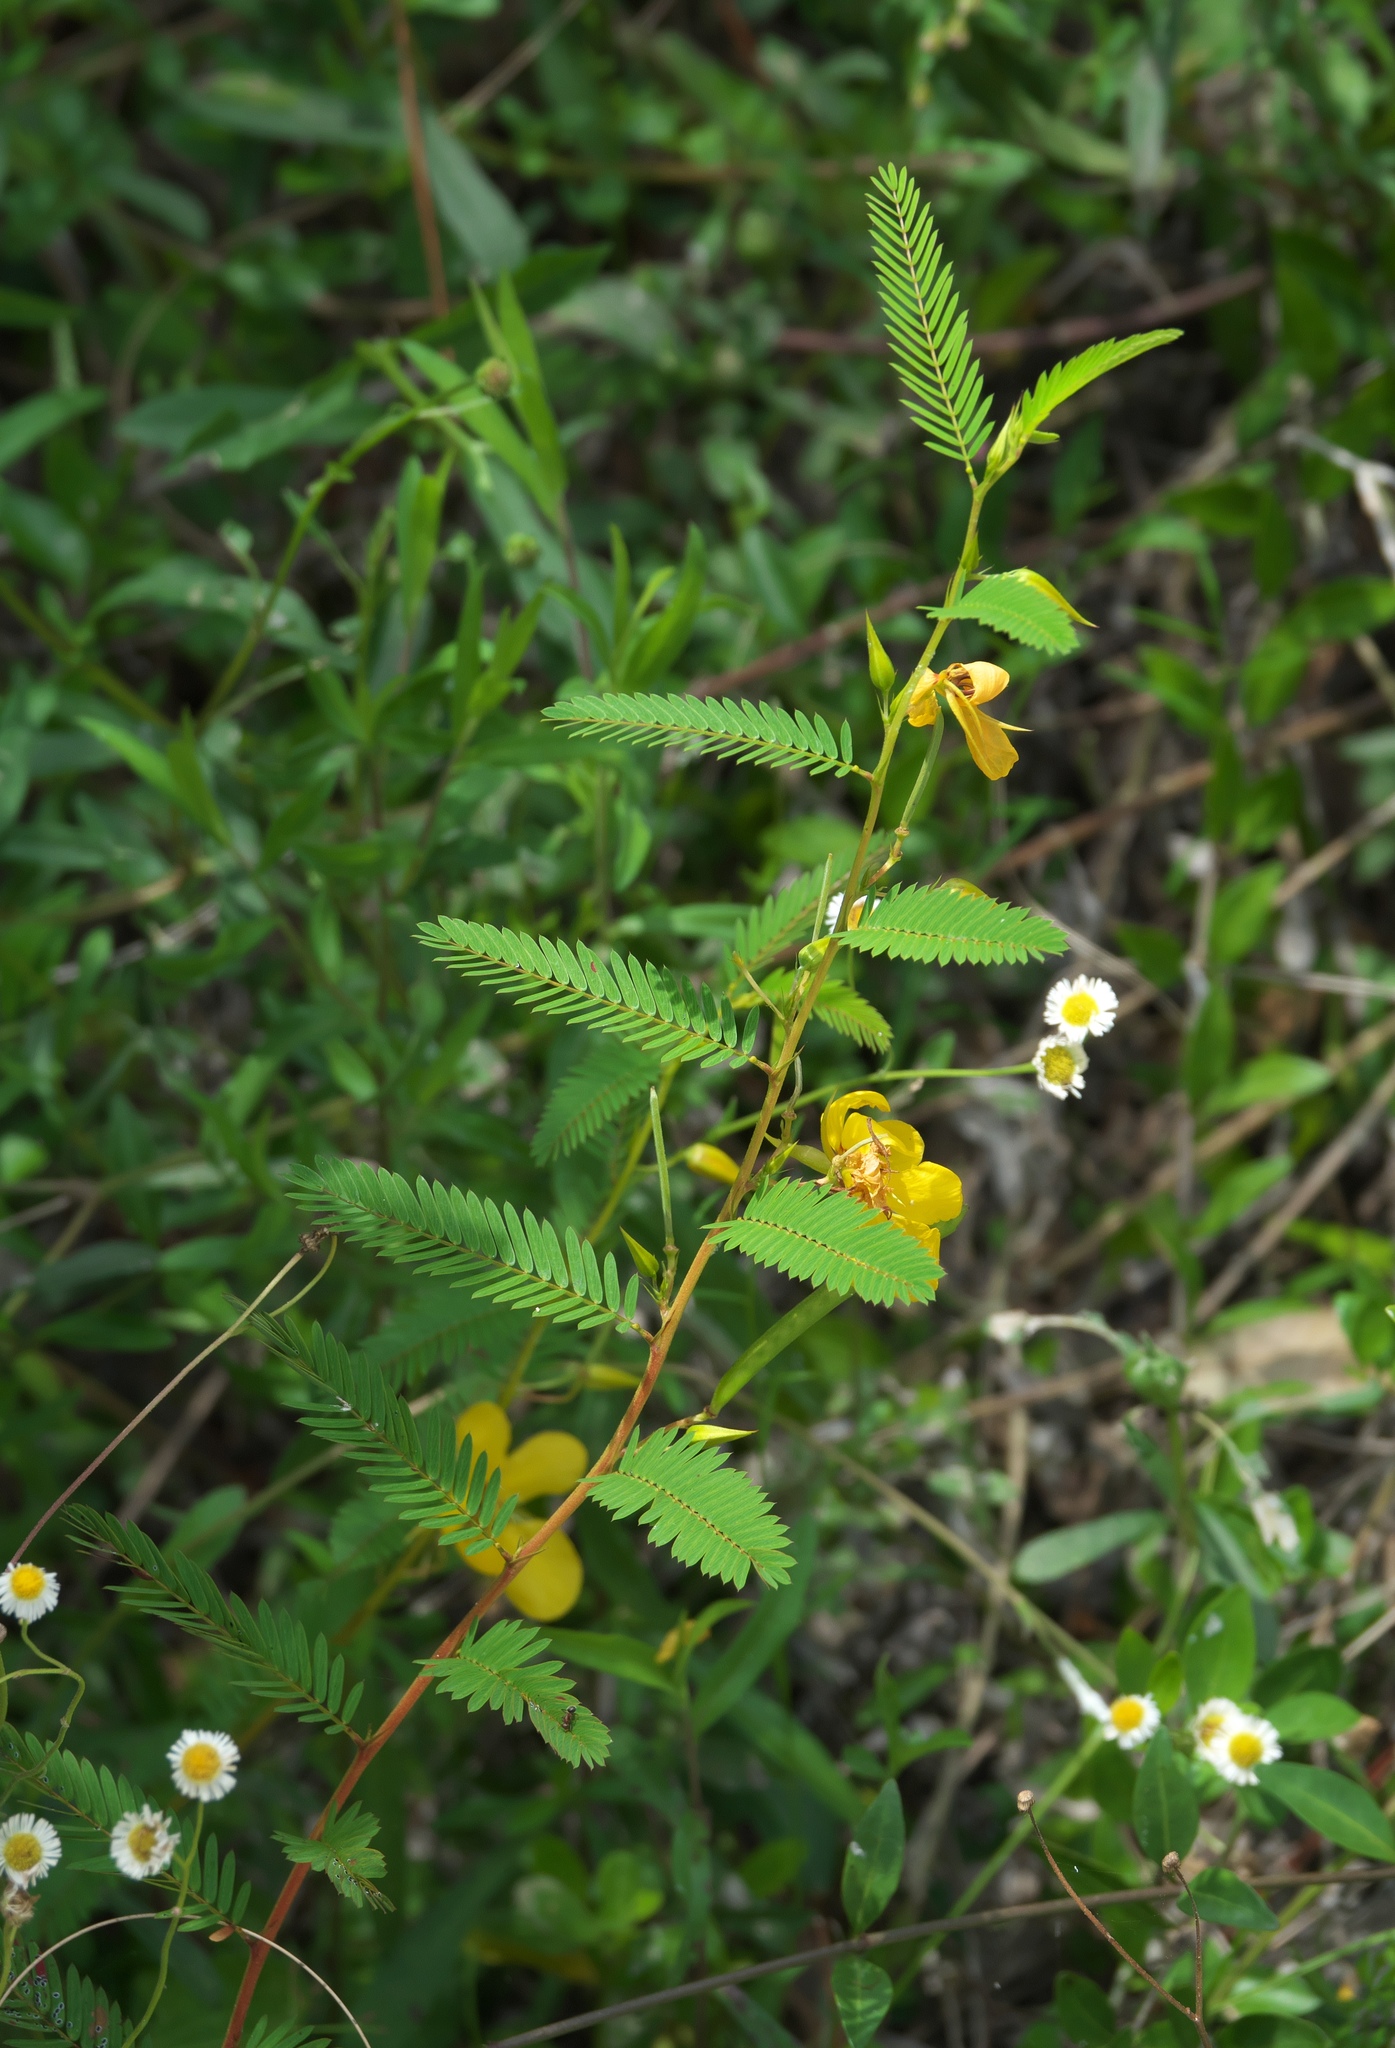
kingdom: Plantae
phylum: Tracheophyta
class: Magnoliopsida
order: Fabales
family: Fabaceae
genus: Chamaecrista
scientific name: Chamaecrista fasciculata
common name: Golden cassia
